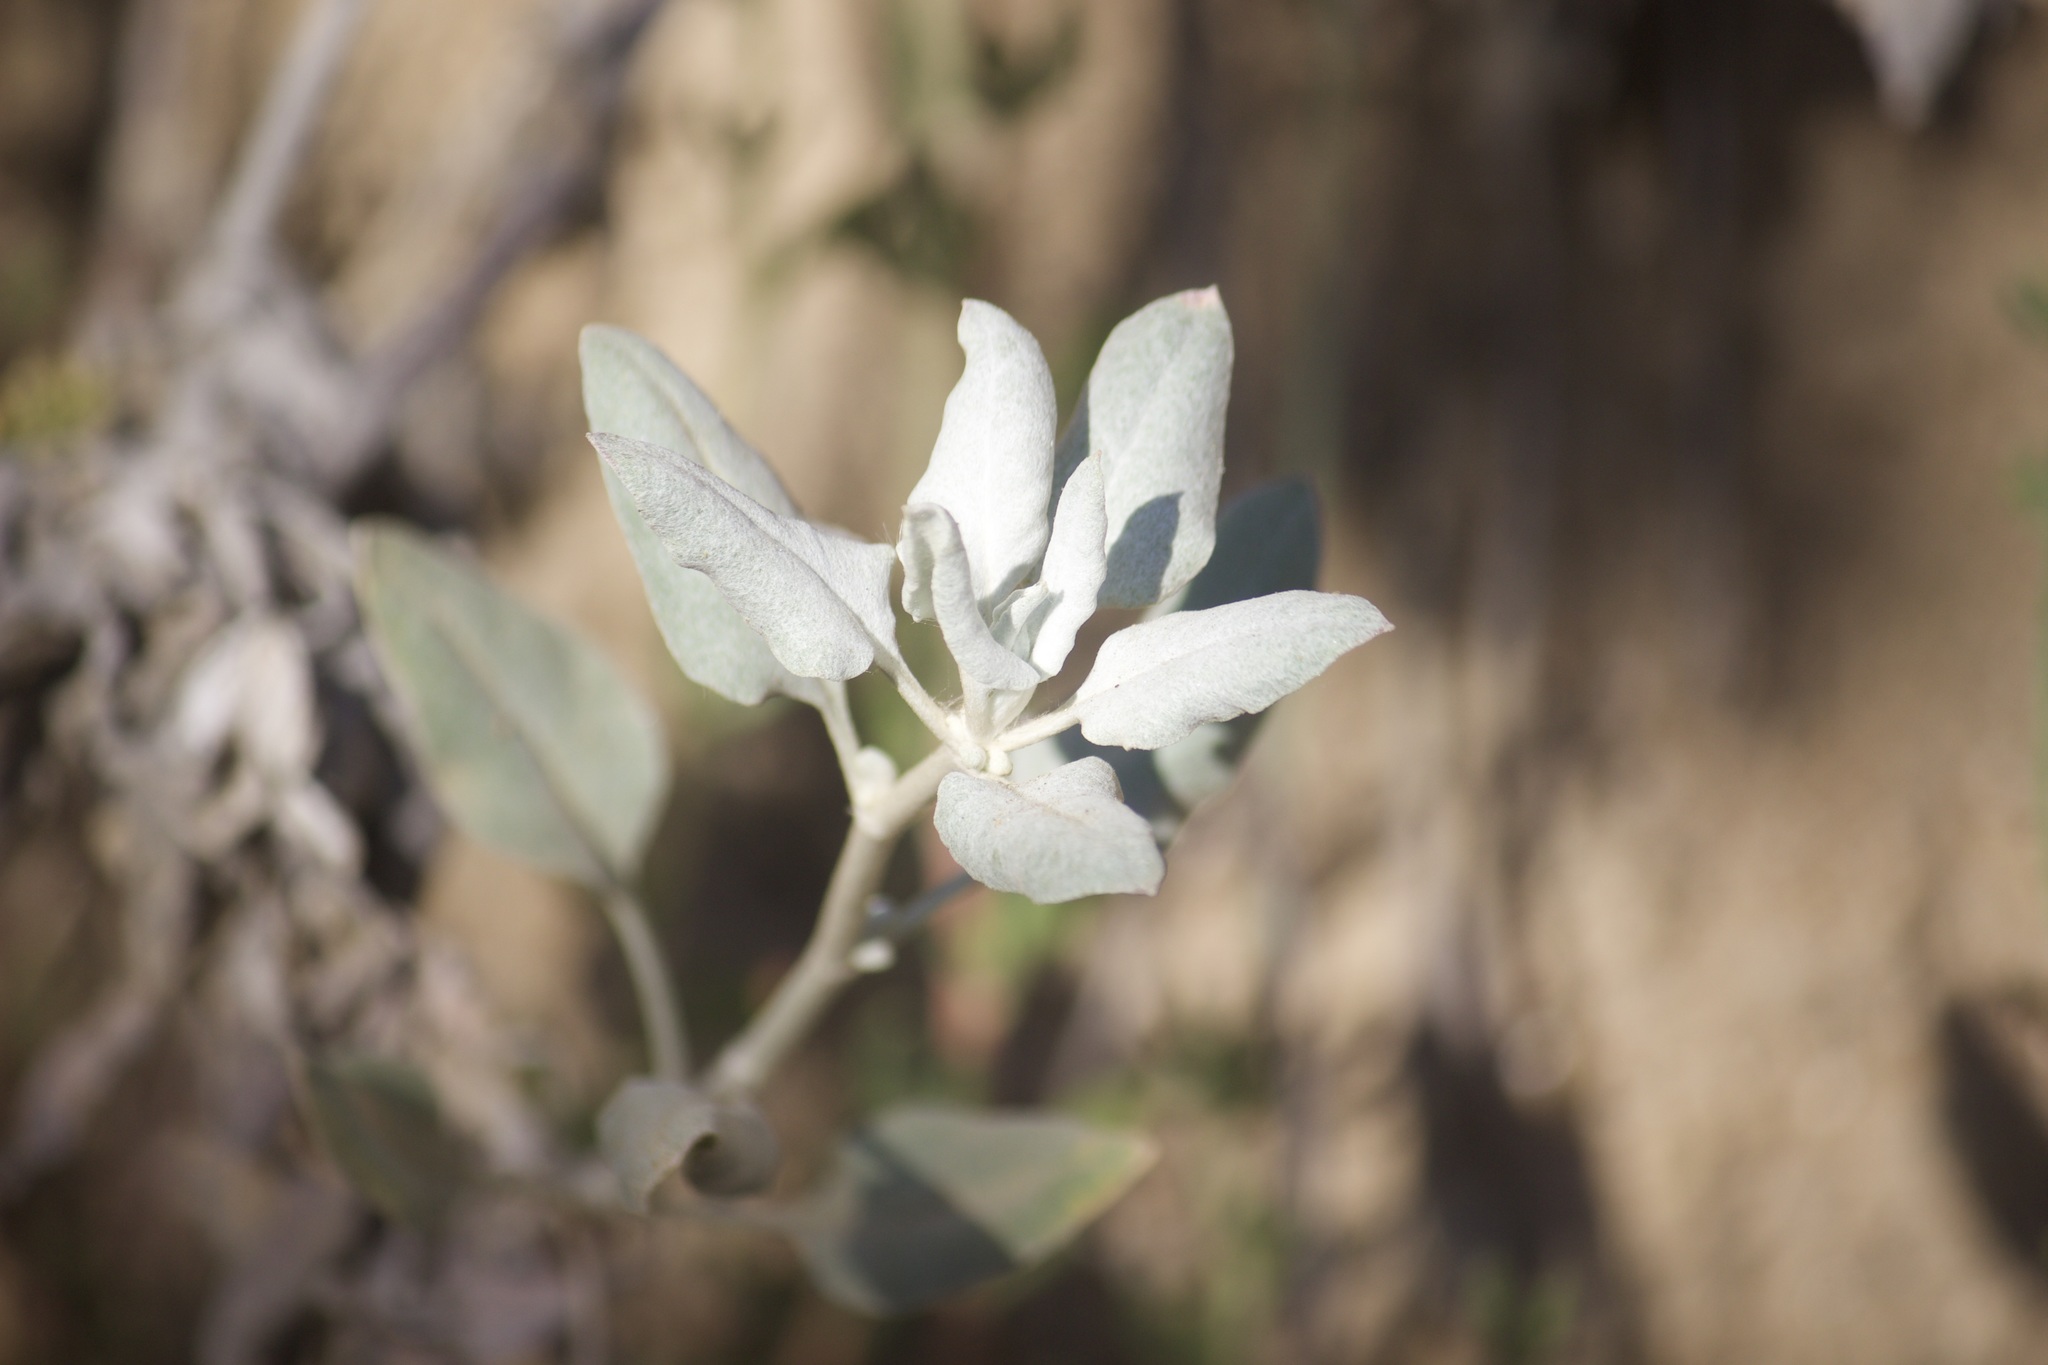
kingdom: Plantae
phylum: Tracheophyta
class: Magnoliopsida
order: Asterales
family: Asteraceae
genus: Encelia
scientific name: Encelia farinosa
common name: Brittlebush
